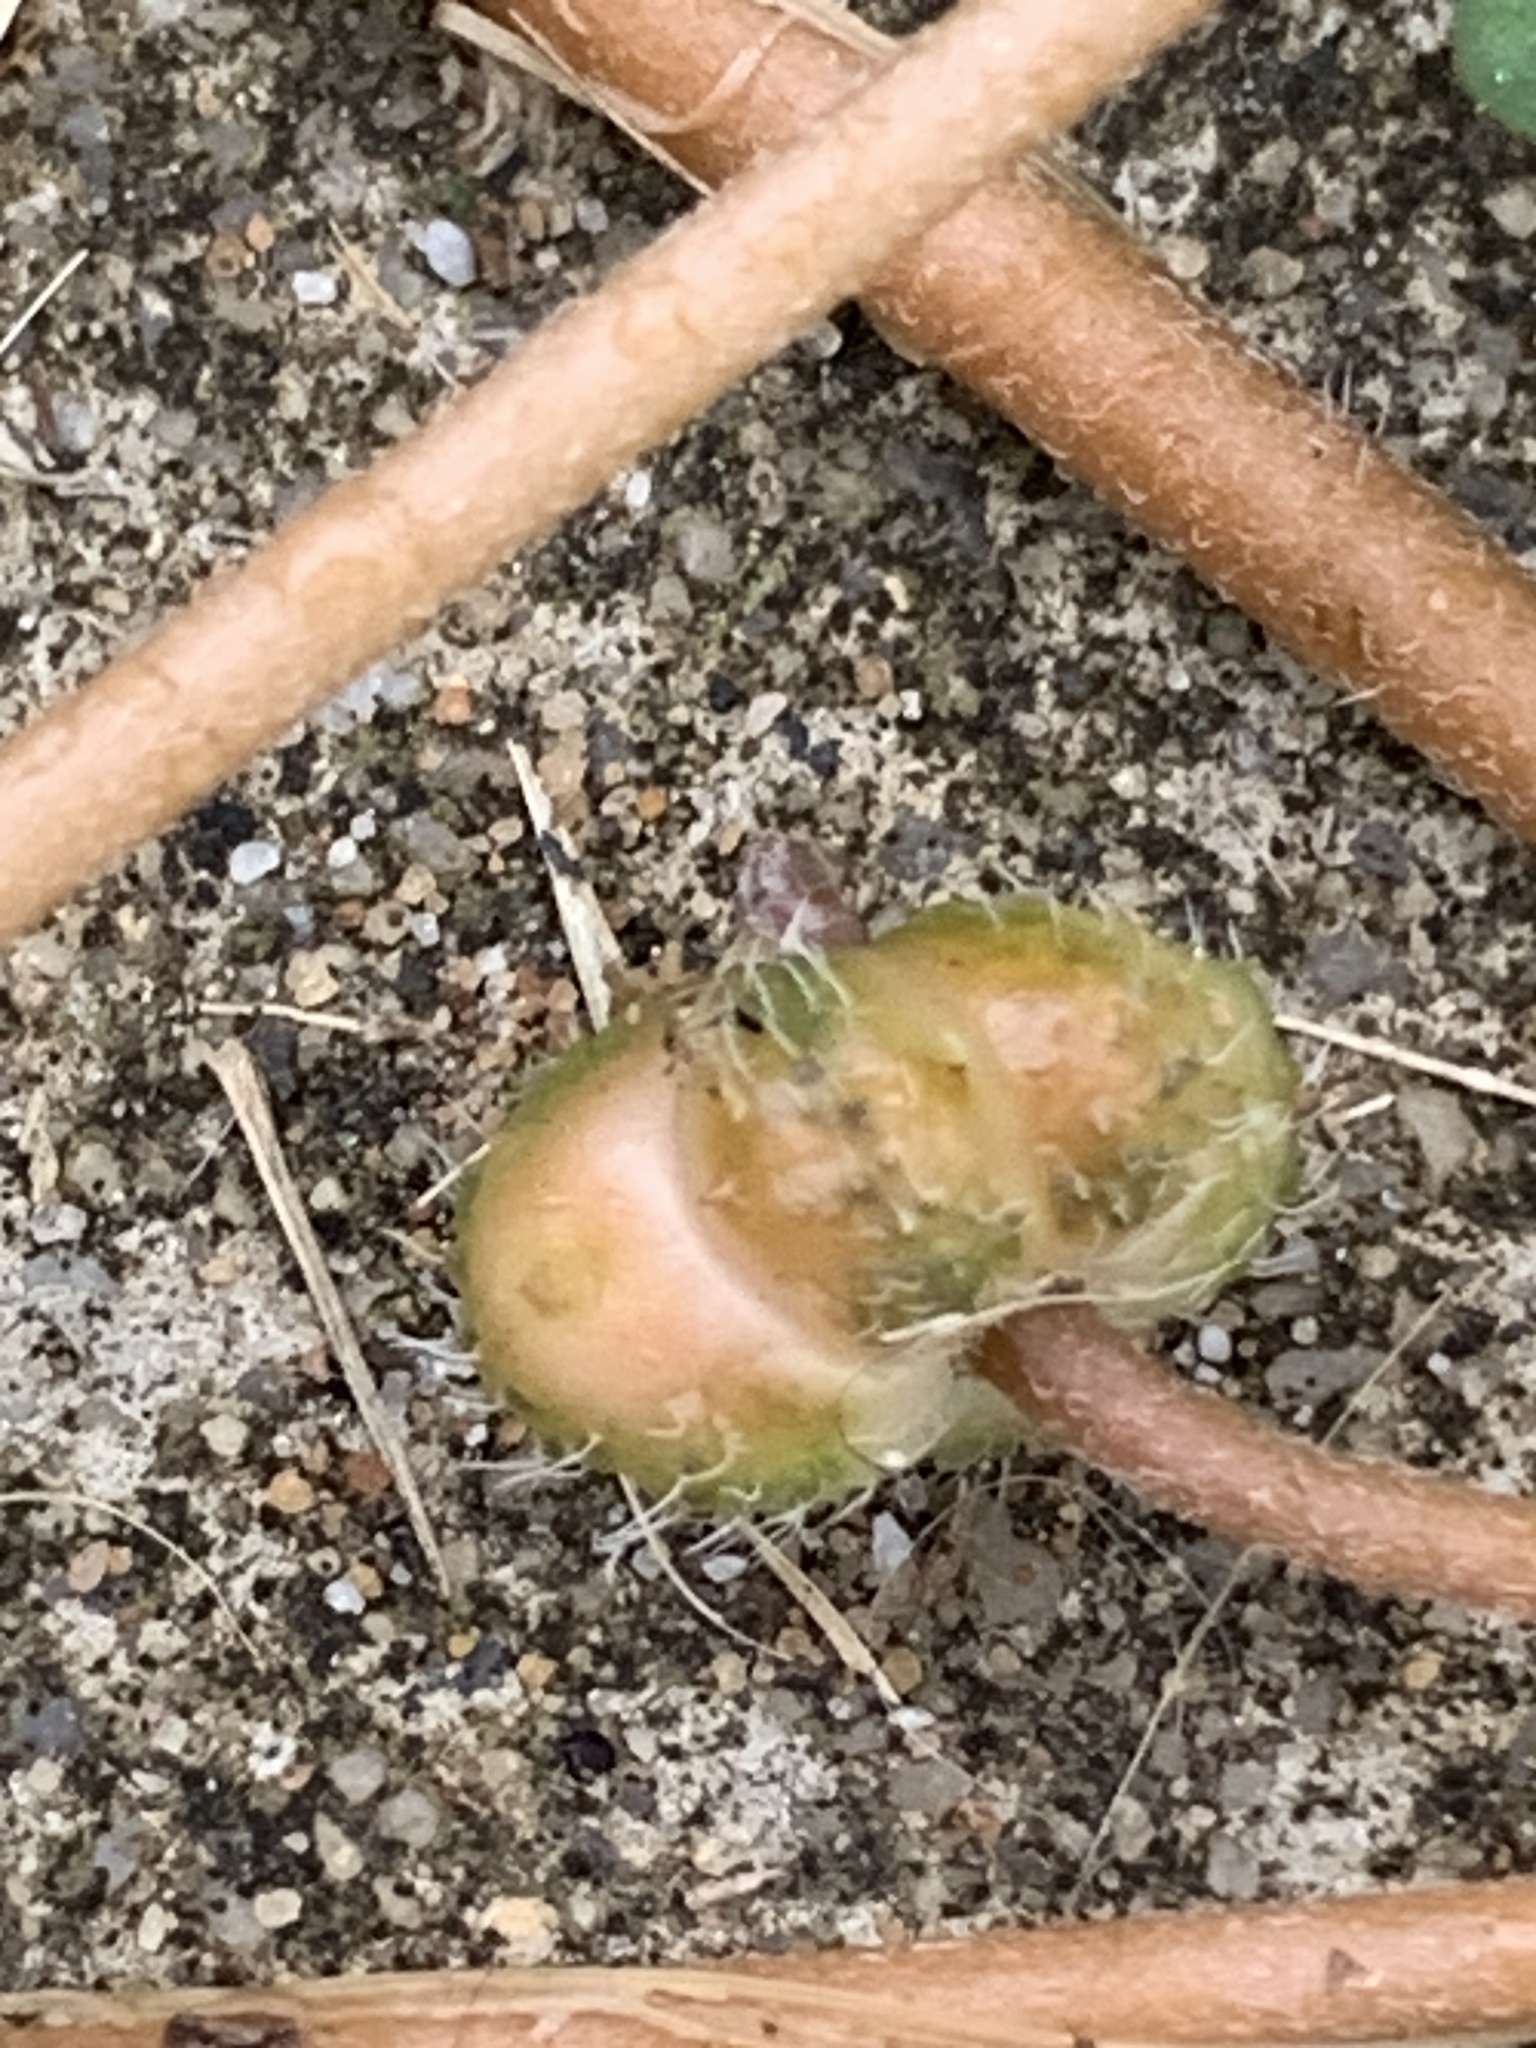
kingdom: Plantae
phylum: Tracheophyta
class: Magnoliopsida
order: Zygophyllales
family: Zygophyllaceae
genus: Tribulus
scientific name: Tribulus terrestris
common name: Puncturevine
